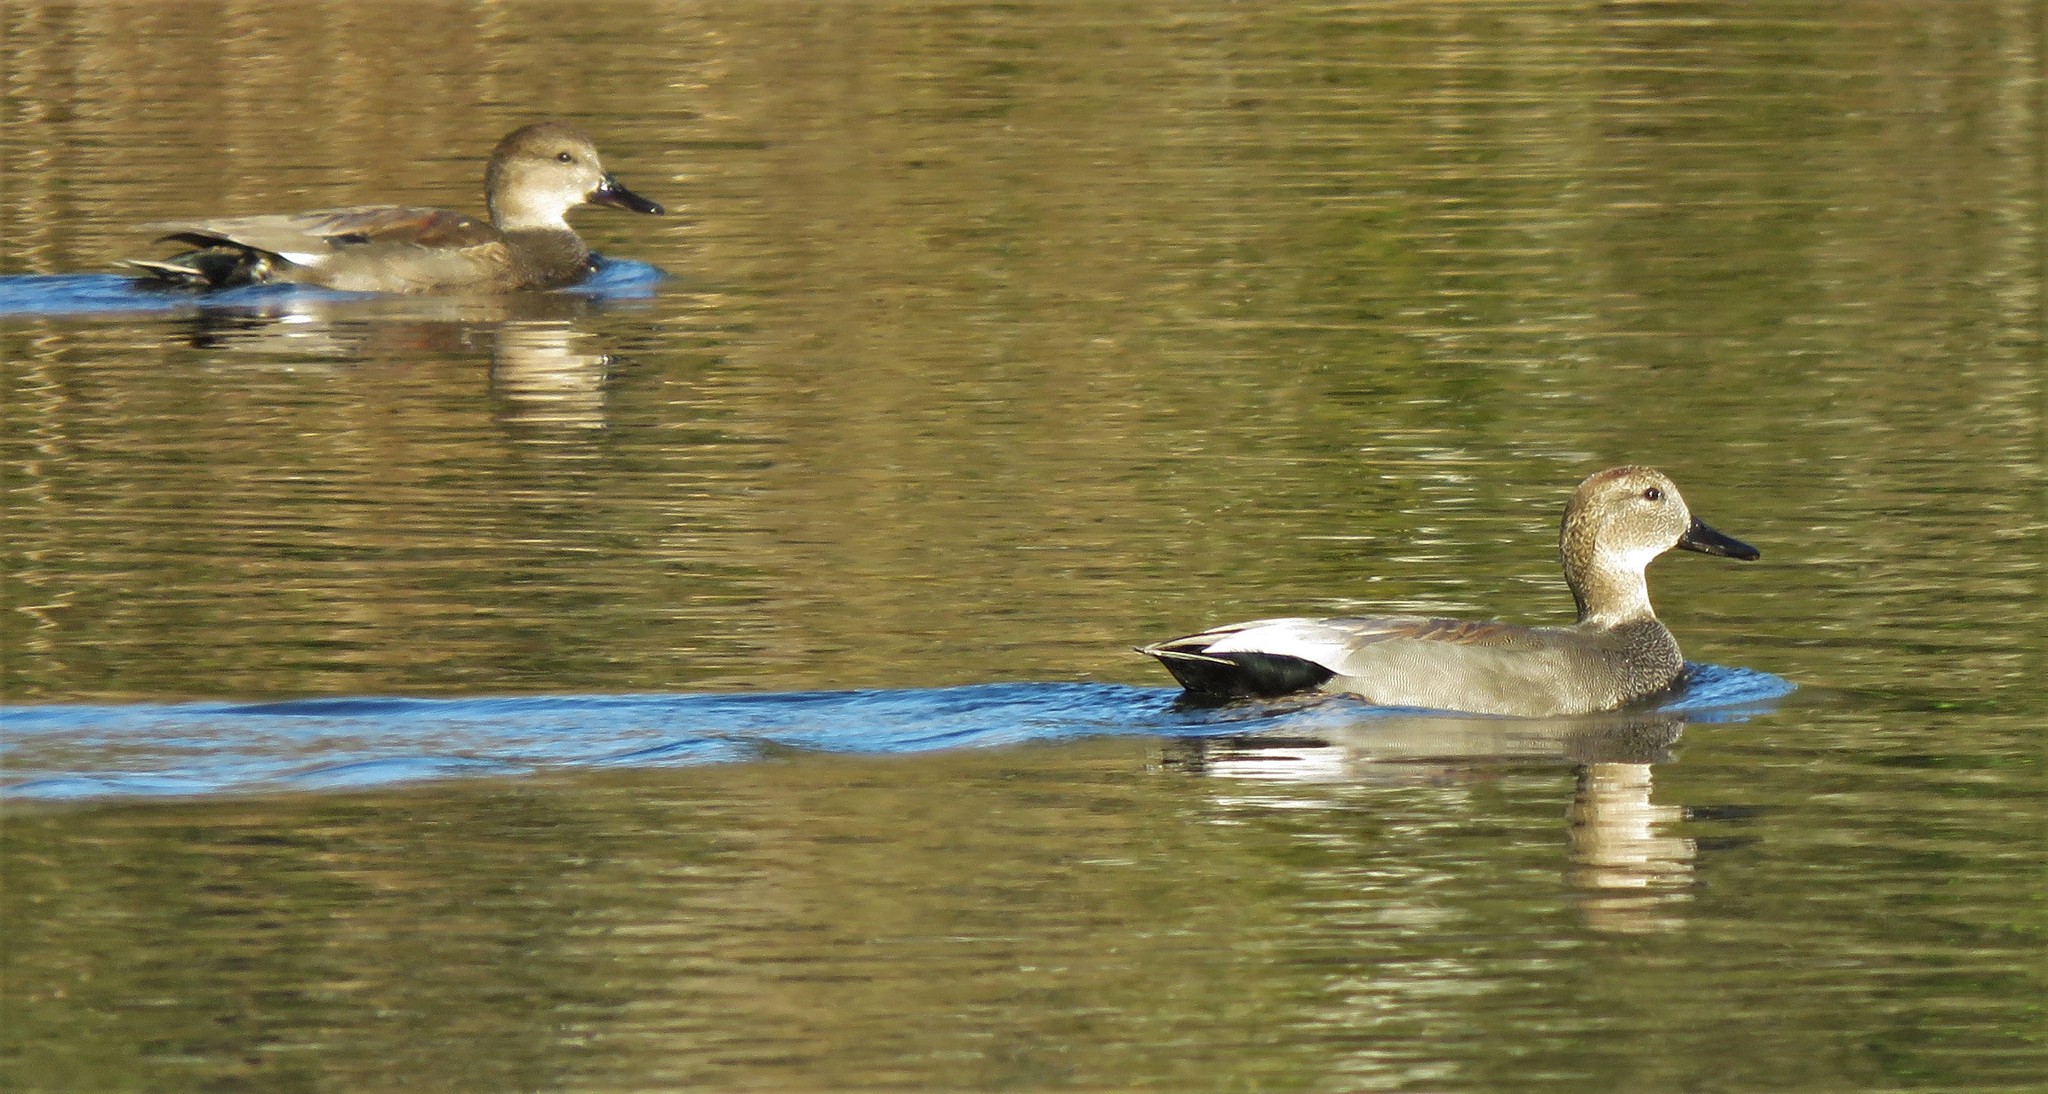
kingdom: Animalia
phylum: Chordata
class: Aves
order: Anseriformes
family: Anatidae
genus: Mareca
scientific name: Mareca strepera
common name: Gadwall
